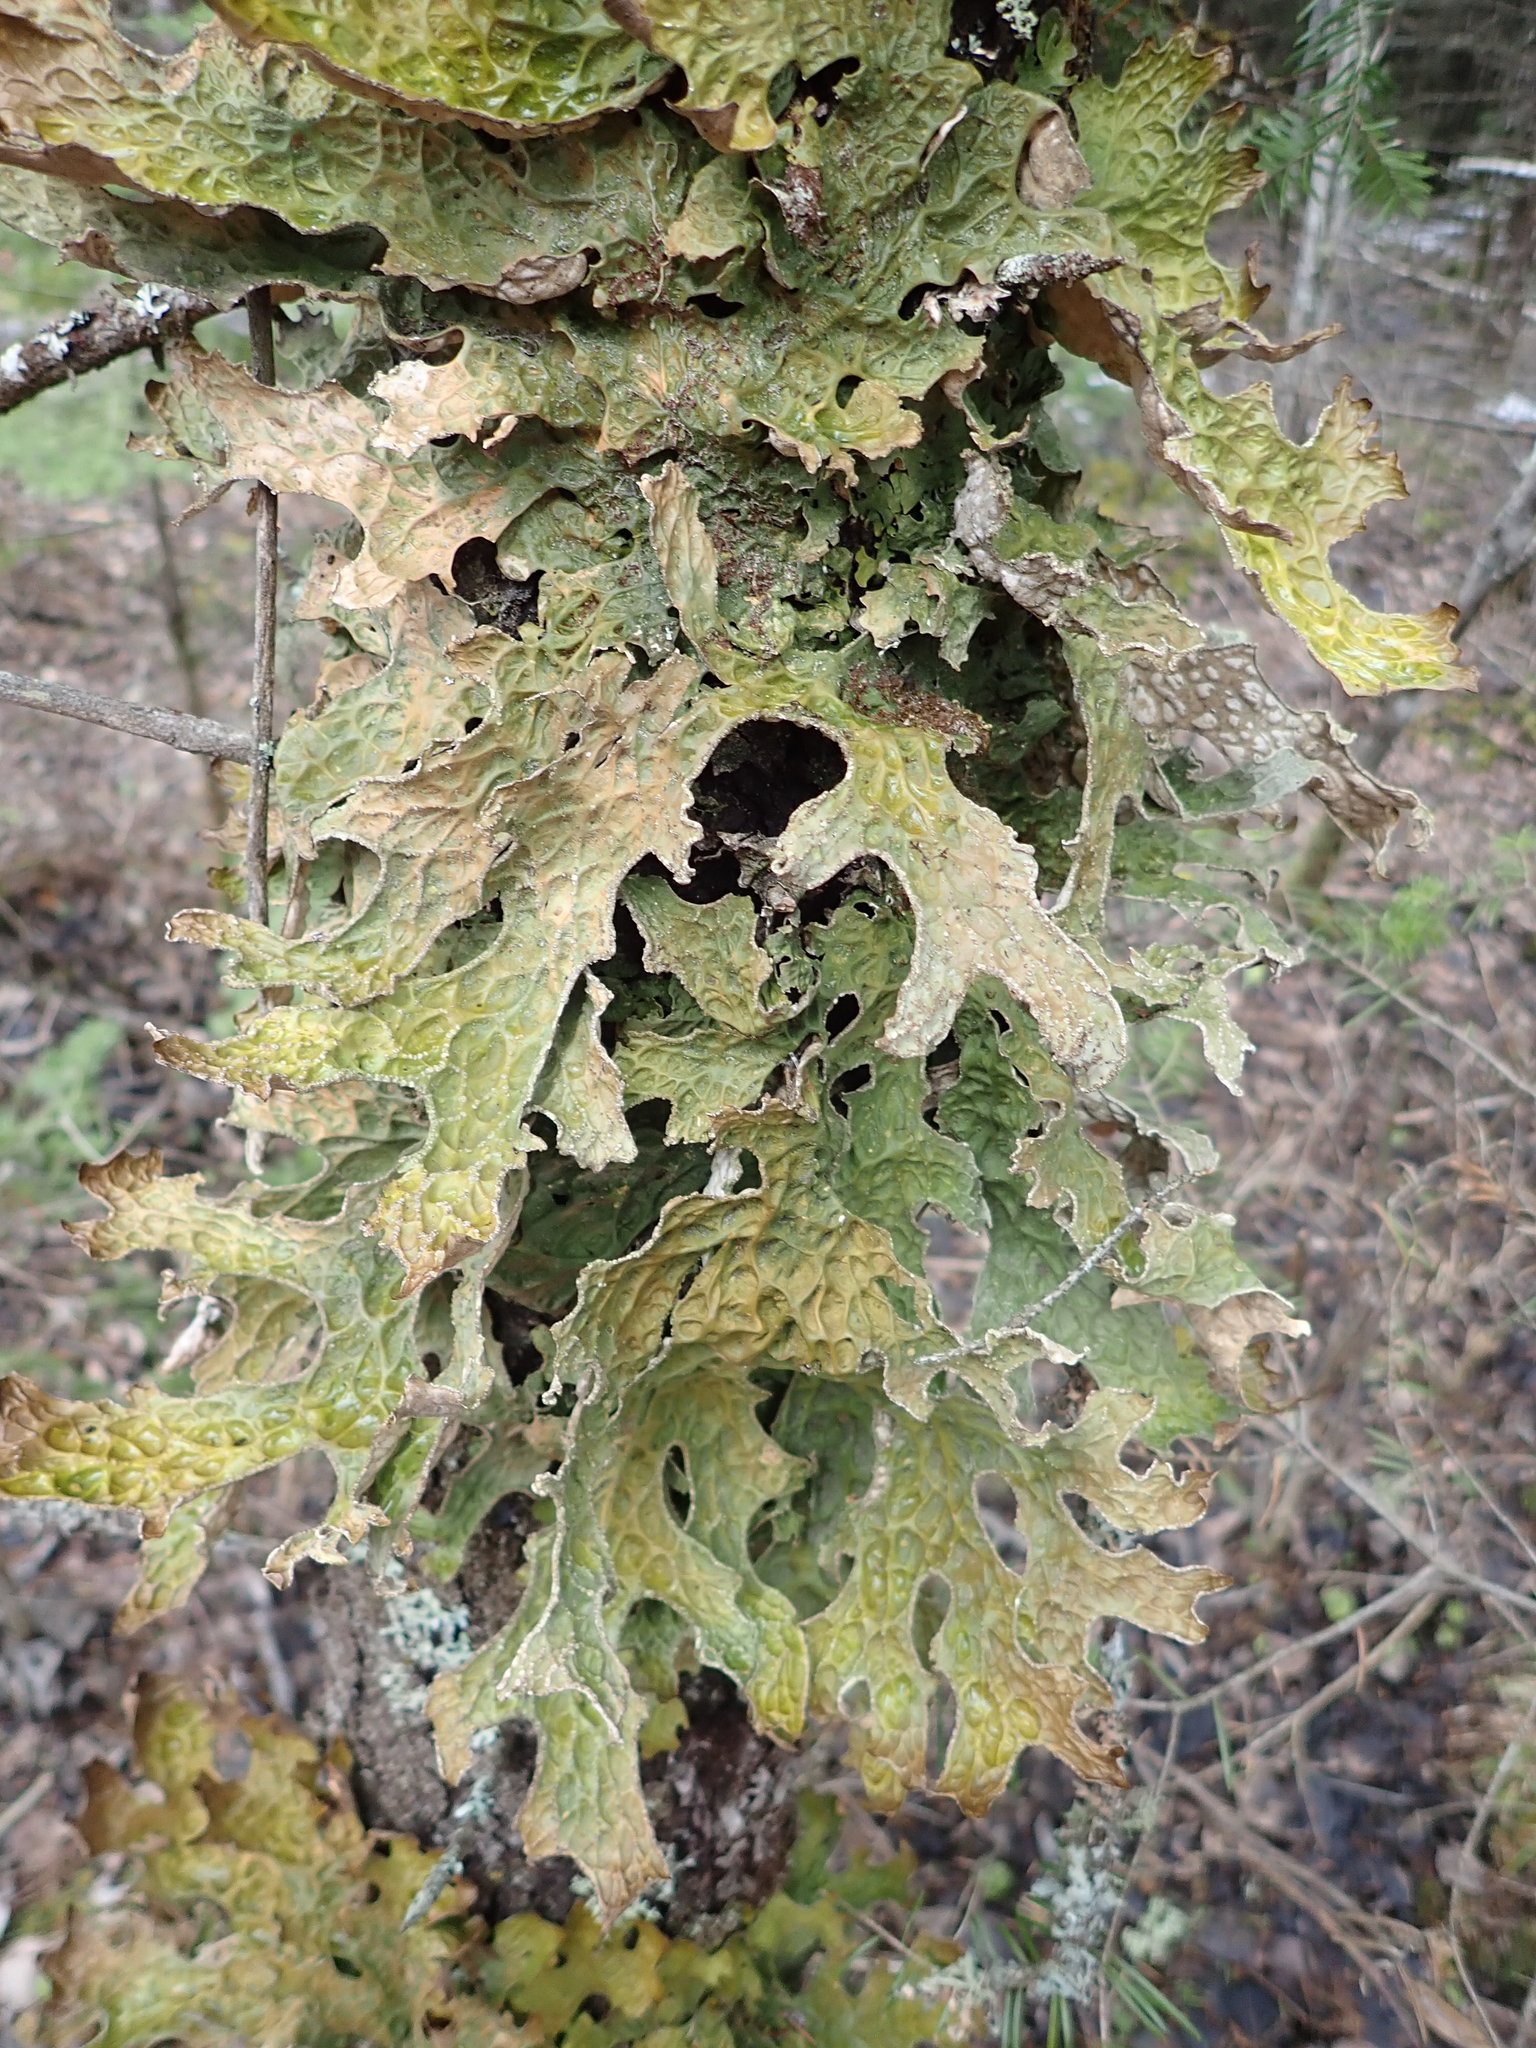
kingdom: Fungi
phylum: Ascomycota
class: Lecanoromycetes
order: Peltigerales
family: Lobariaceae
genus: Lobaria
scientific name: Lobaria pulmonaria
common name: Lungwort
